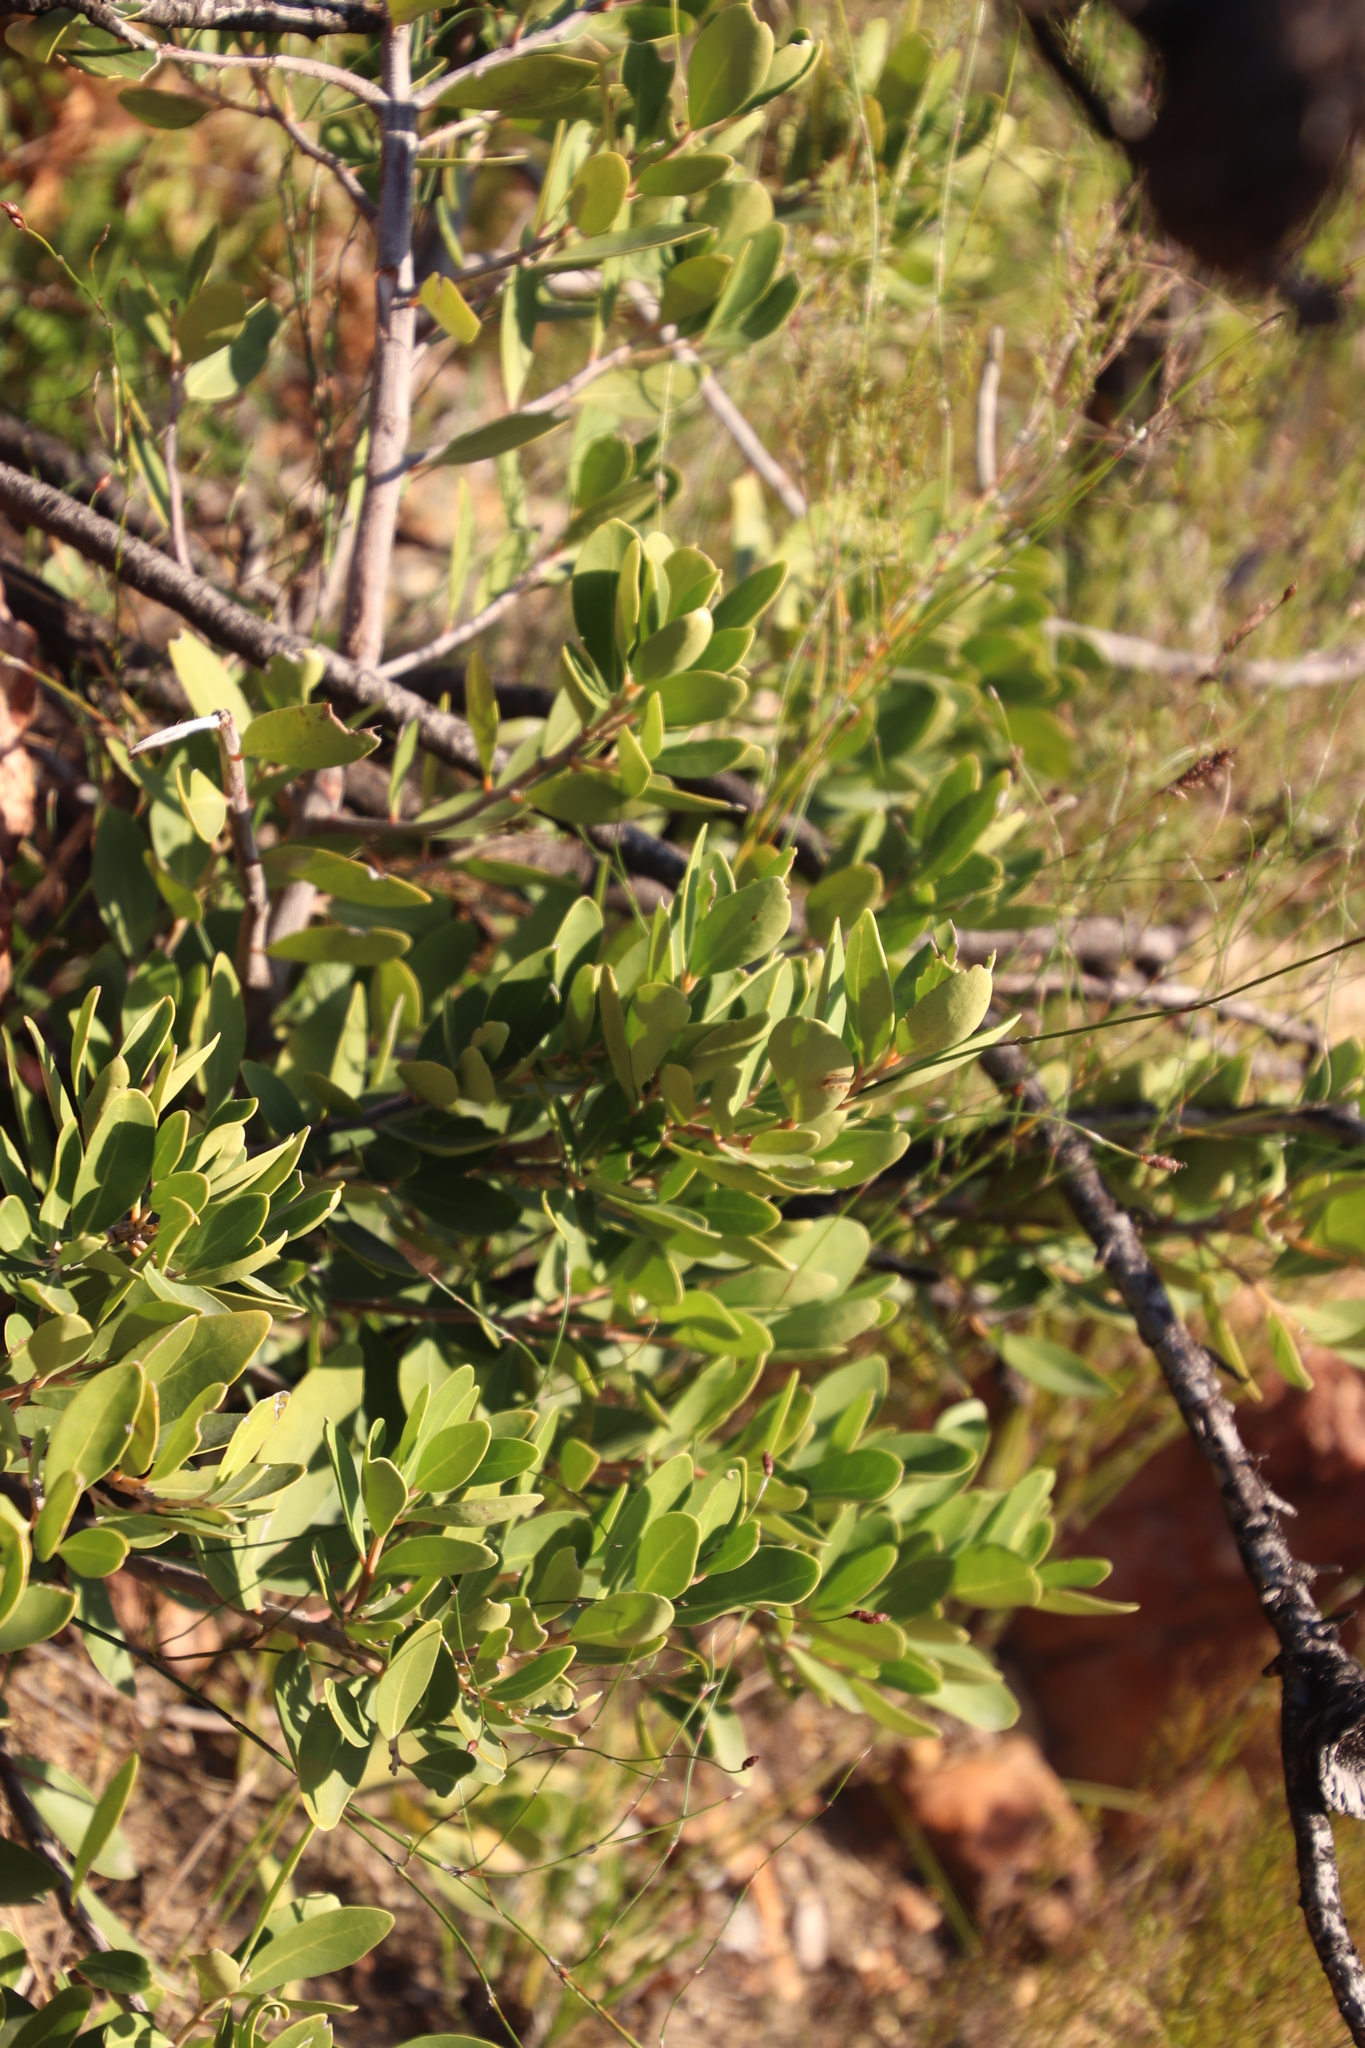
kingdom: Plantae
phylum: Tracheophyta
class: Magnoliopsida
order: Celastrales
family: Celastraceae
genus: Gymnosporia
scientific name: Gymnosporia laurina
